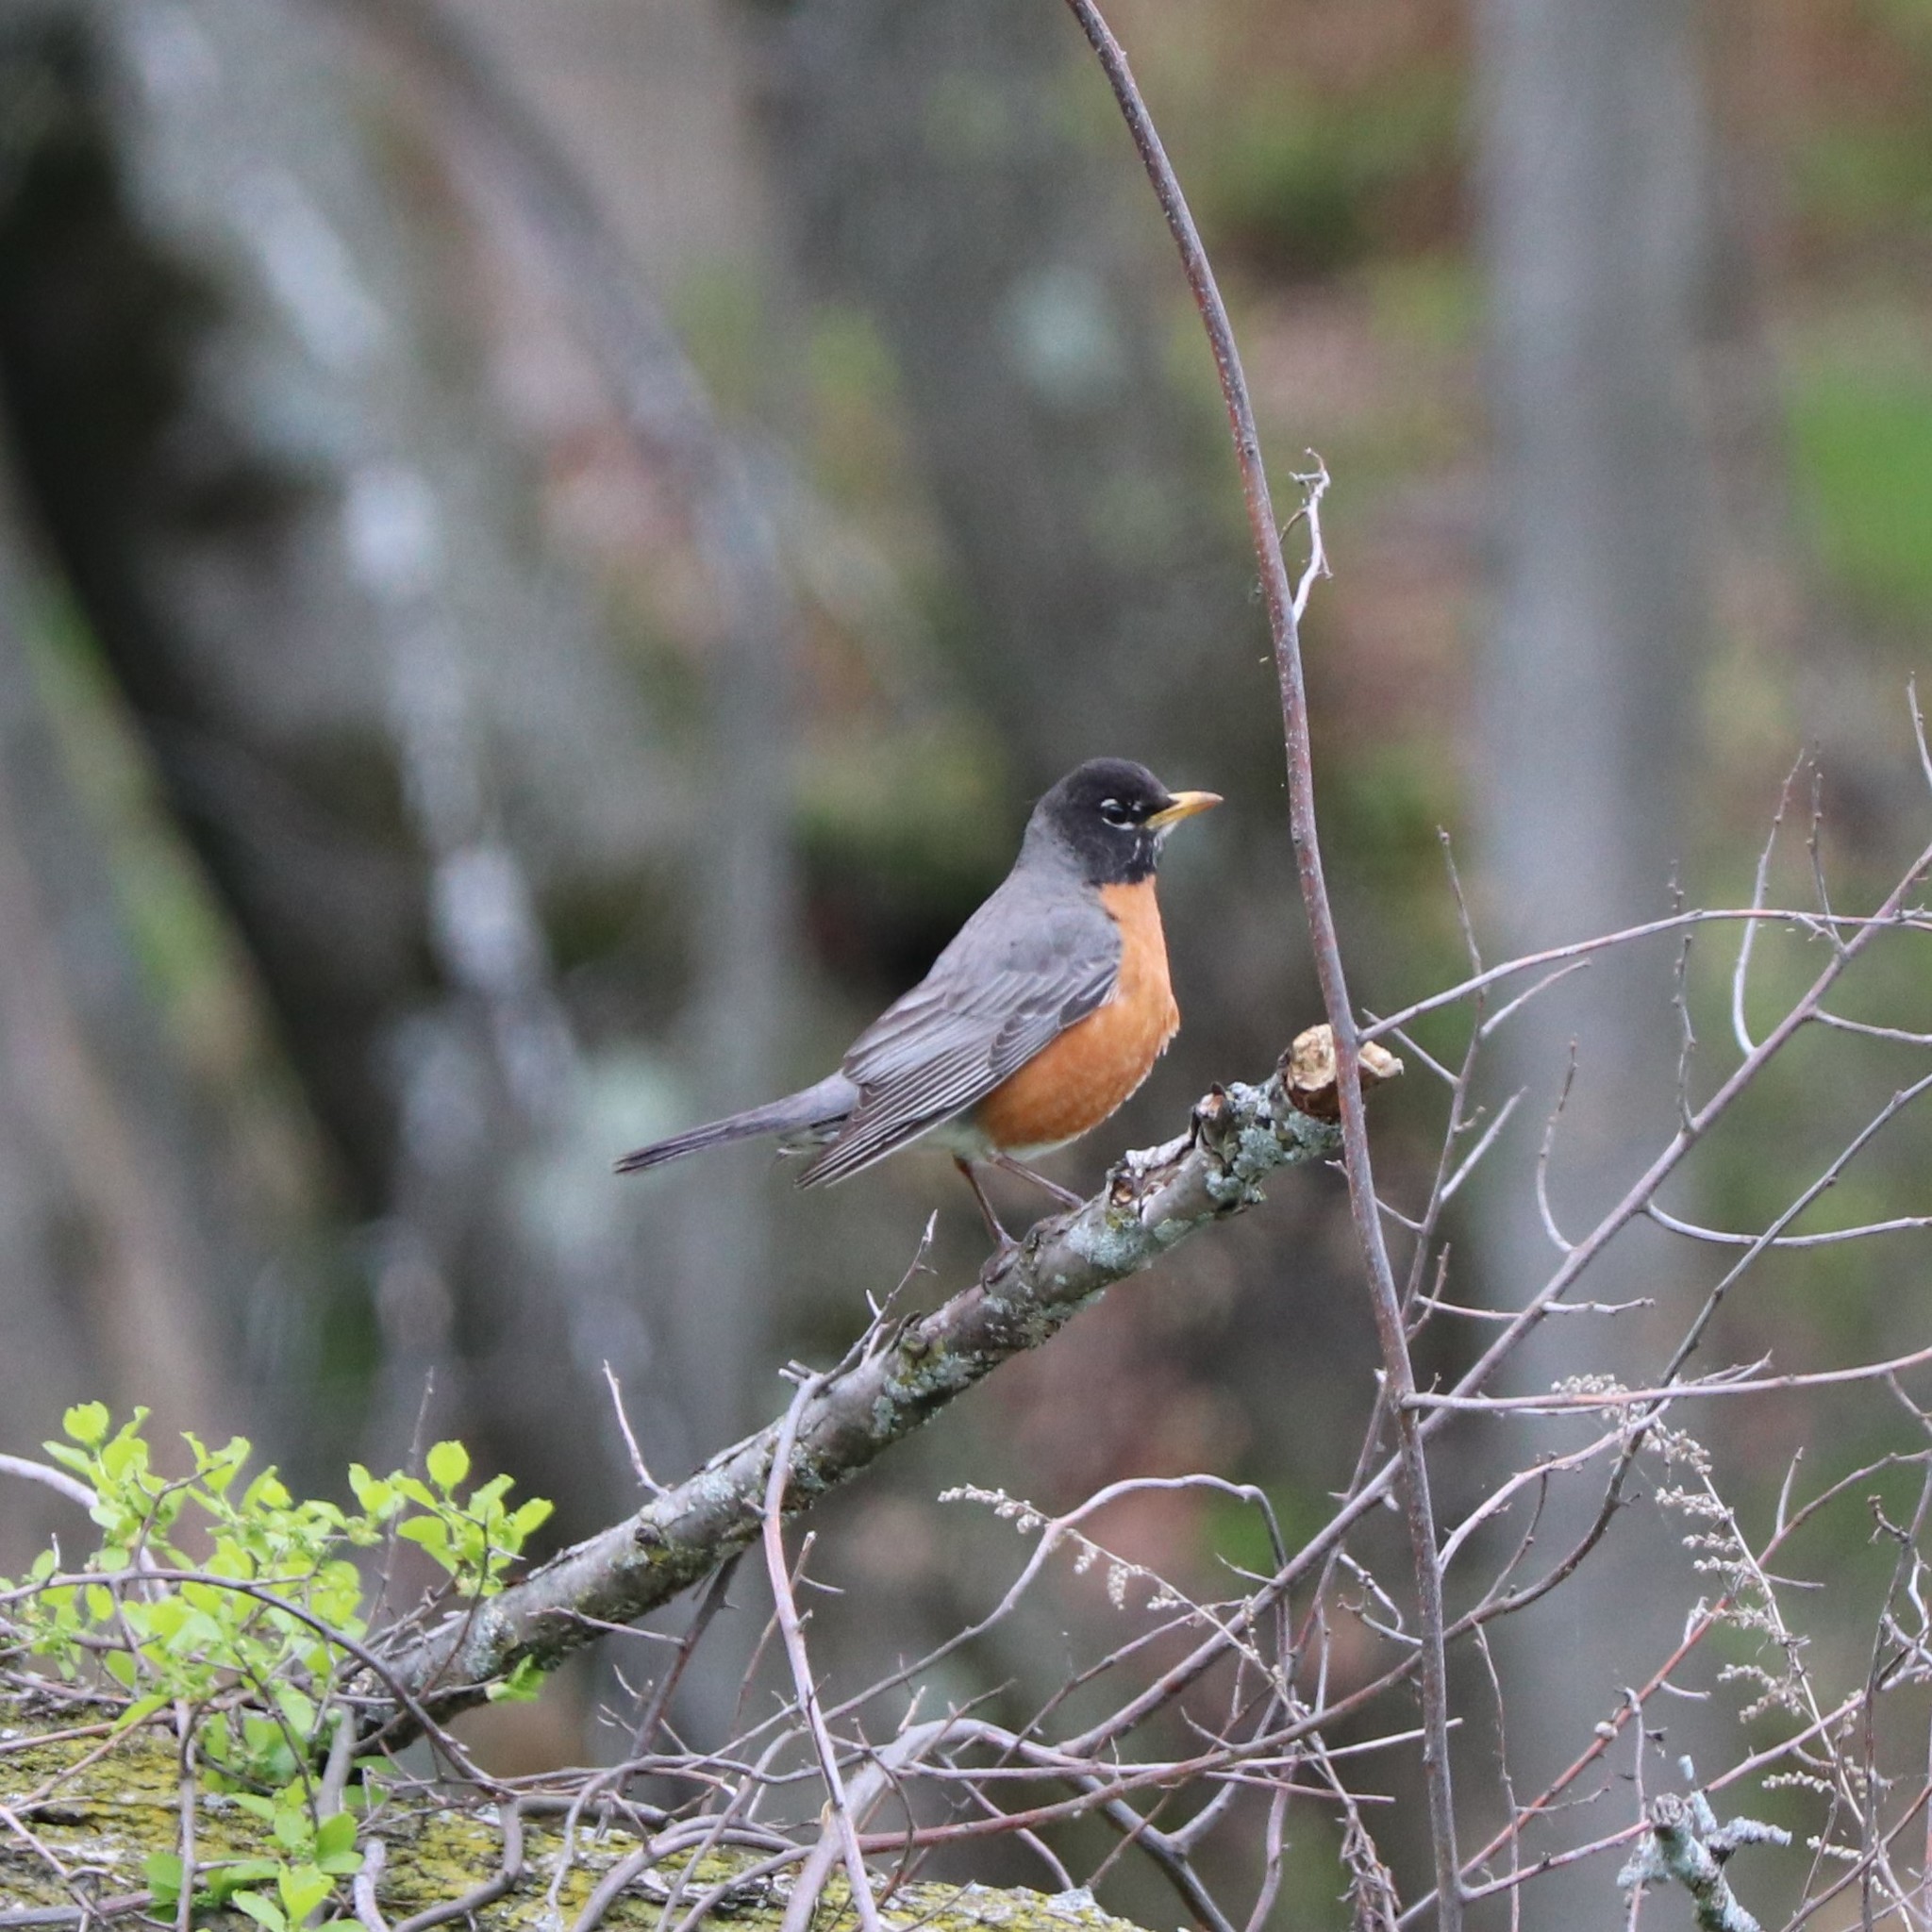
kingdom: Animalia
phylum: Chordata
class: Aves
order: Passeriformes
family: Turdidae
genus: Turdus
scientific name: Turdus migratorius
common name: American robin
